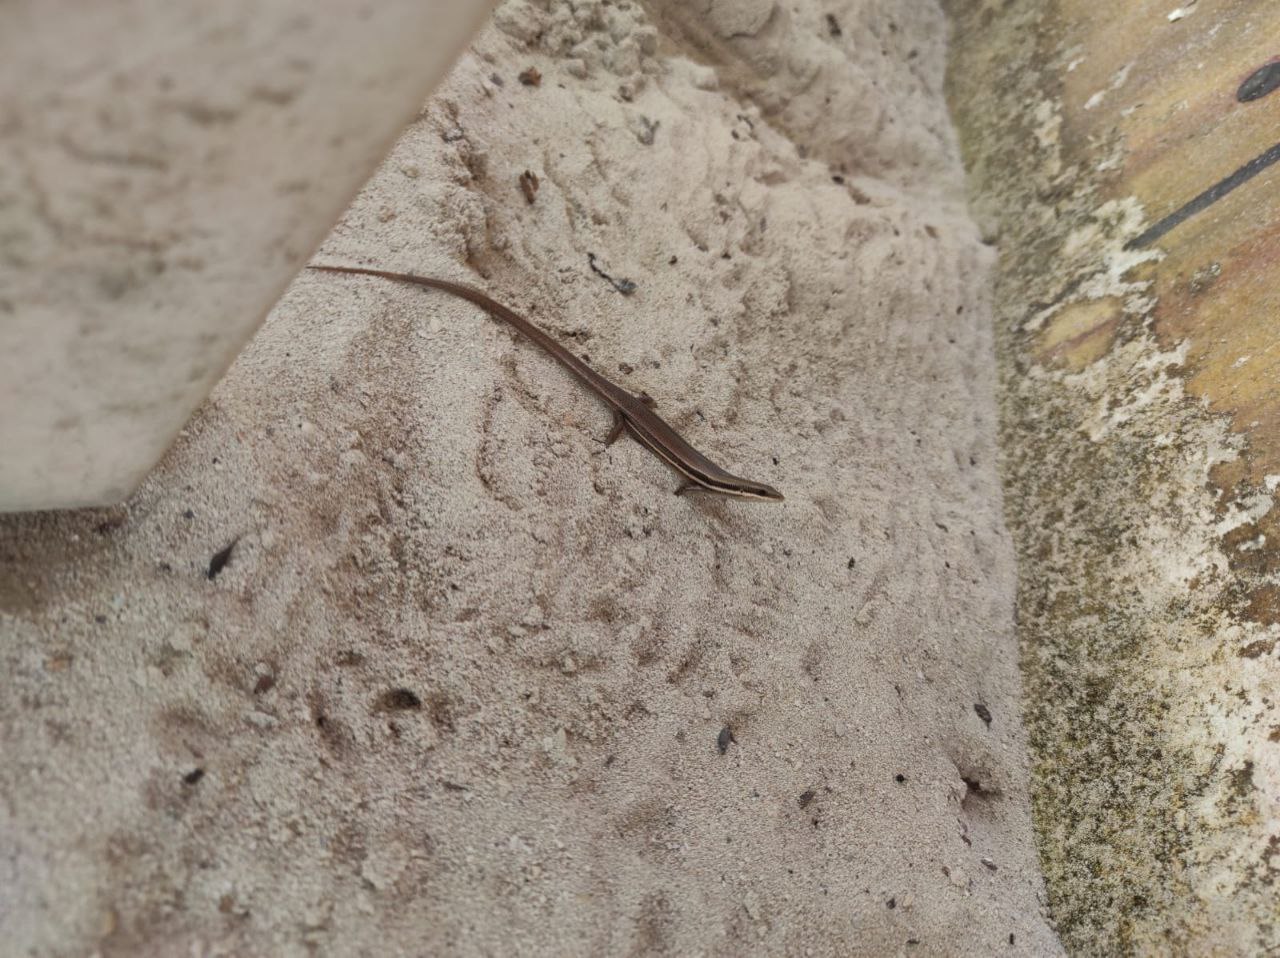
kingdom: Animalia
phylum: Chordata
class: Squamata
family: Scincidae
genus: Marisora
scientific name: Marisora lineola
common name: Mayan skink
